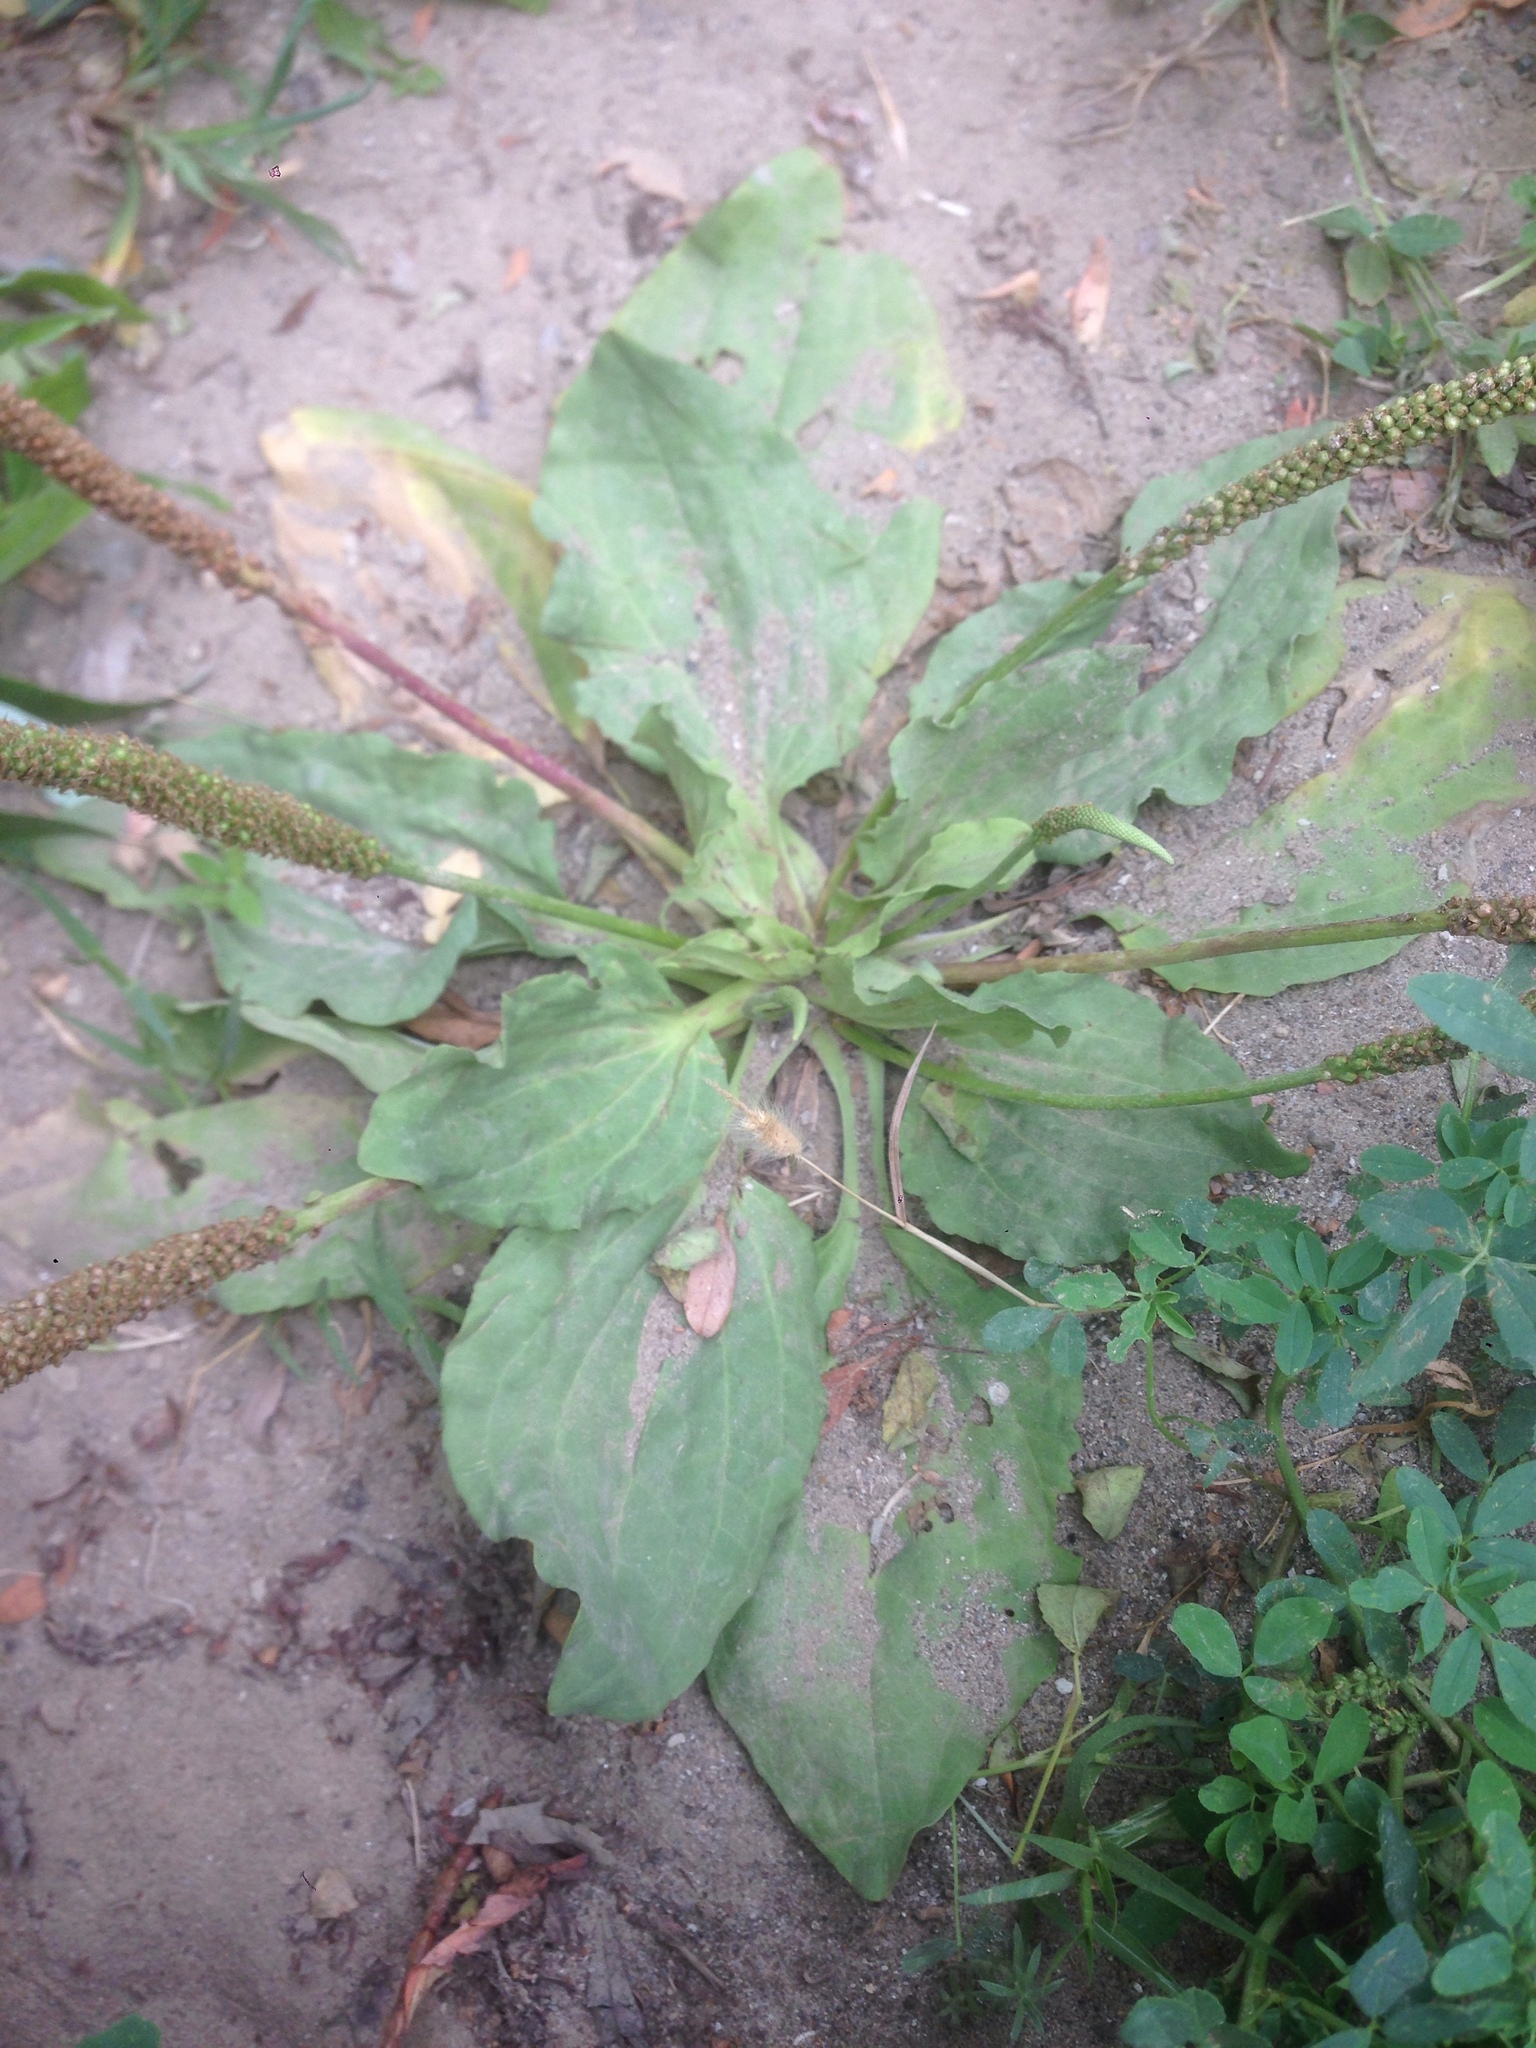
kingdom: Plantae
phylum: Tracheophyta
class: Magnoliopsida
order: Lamiales
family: Plantaginaceae
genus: Plantago
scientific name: Plantago major
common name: Common plantain
